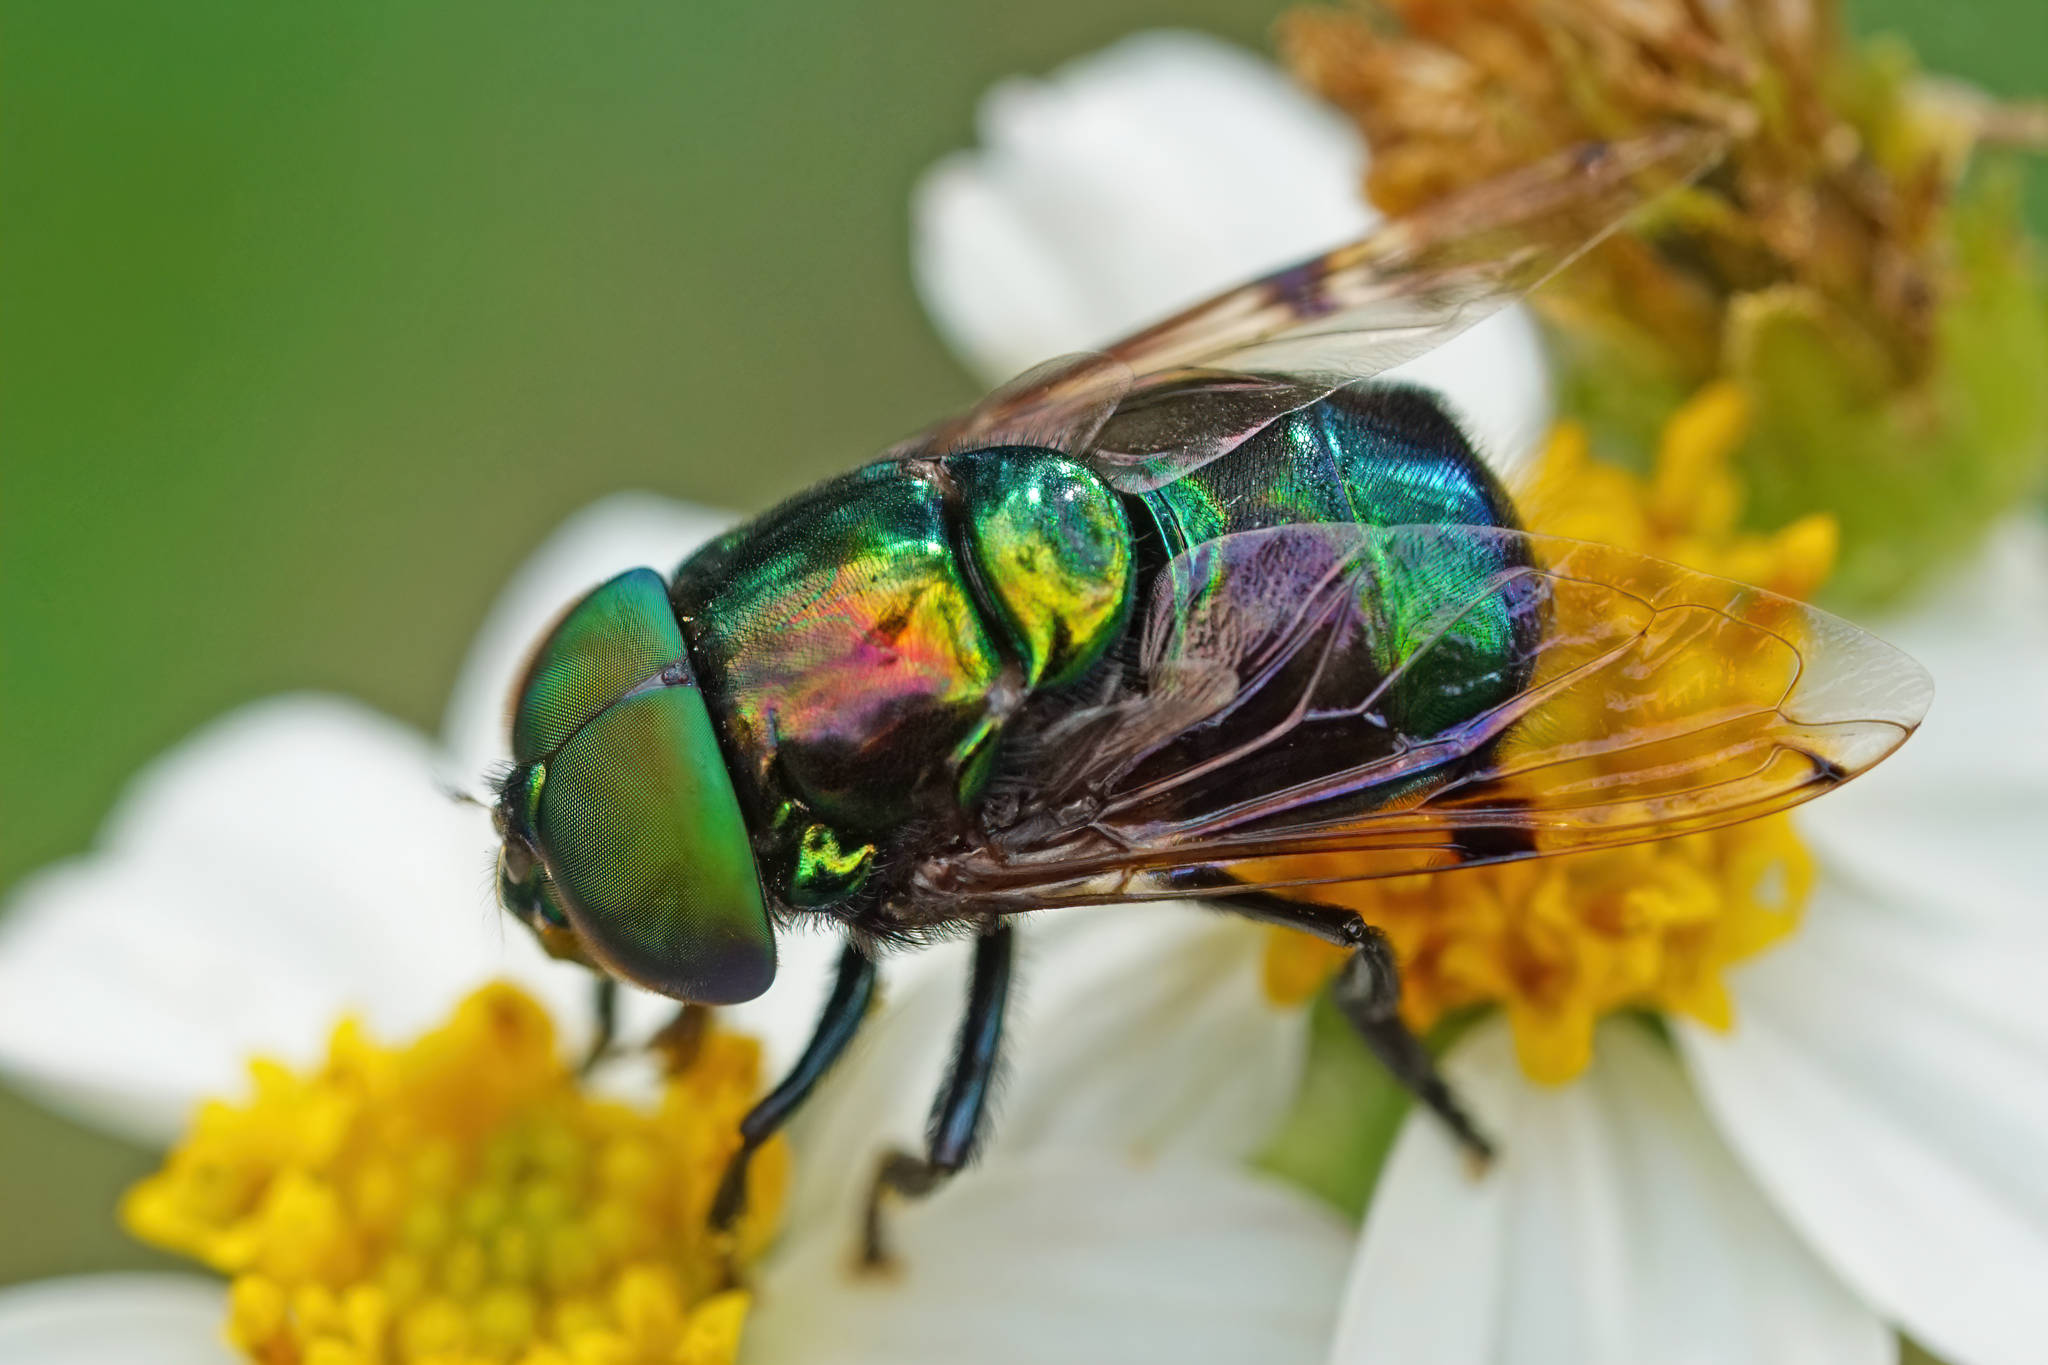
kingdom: Animalia
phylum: Arthropoda
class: Insecta
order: Diptera
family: Syrphidae
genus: Ornidia
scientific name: Ornidia obesa
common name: Syrphid fly
